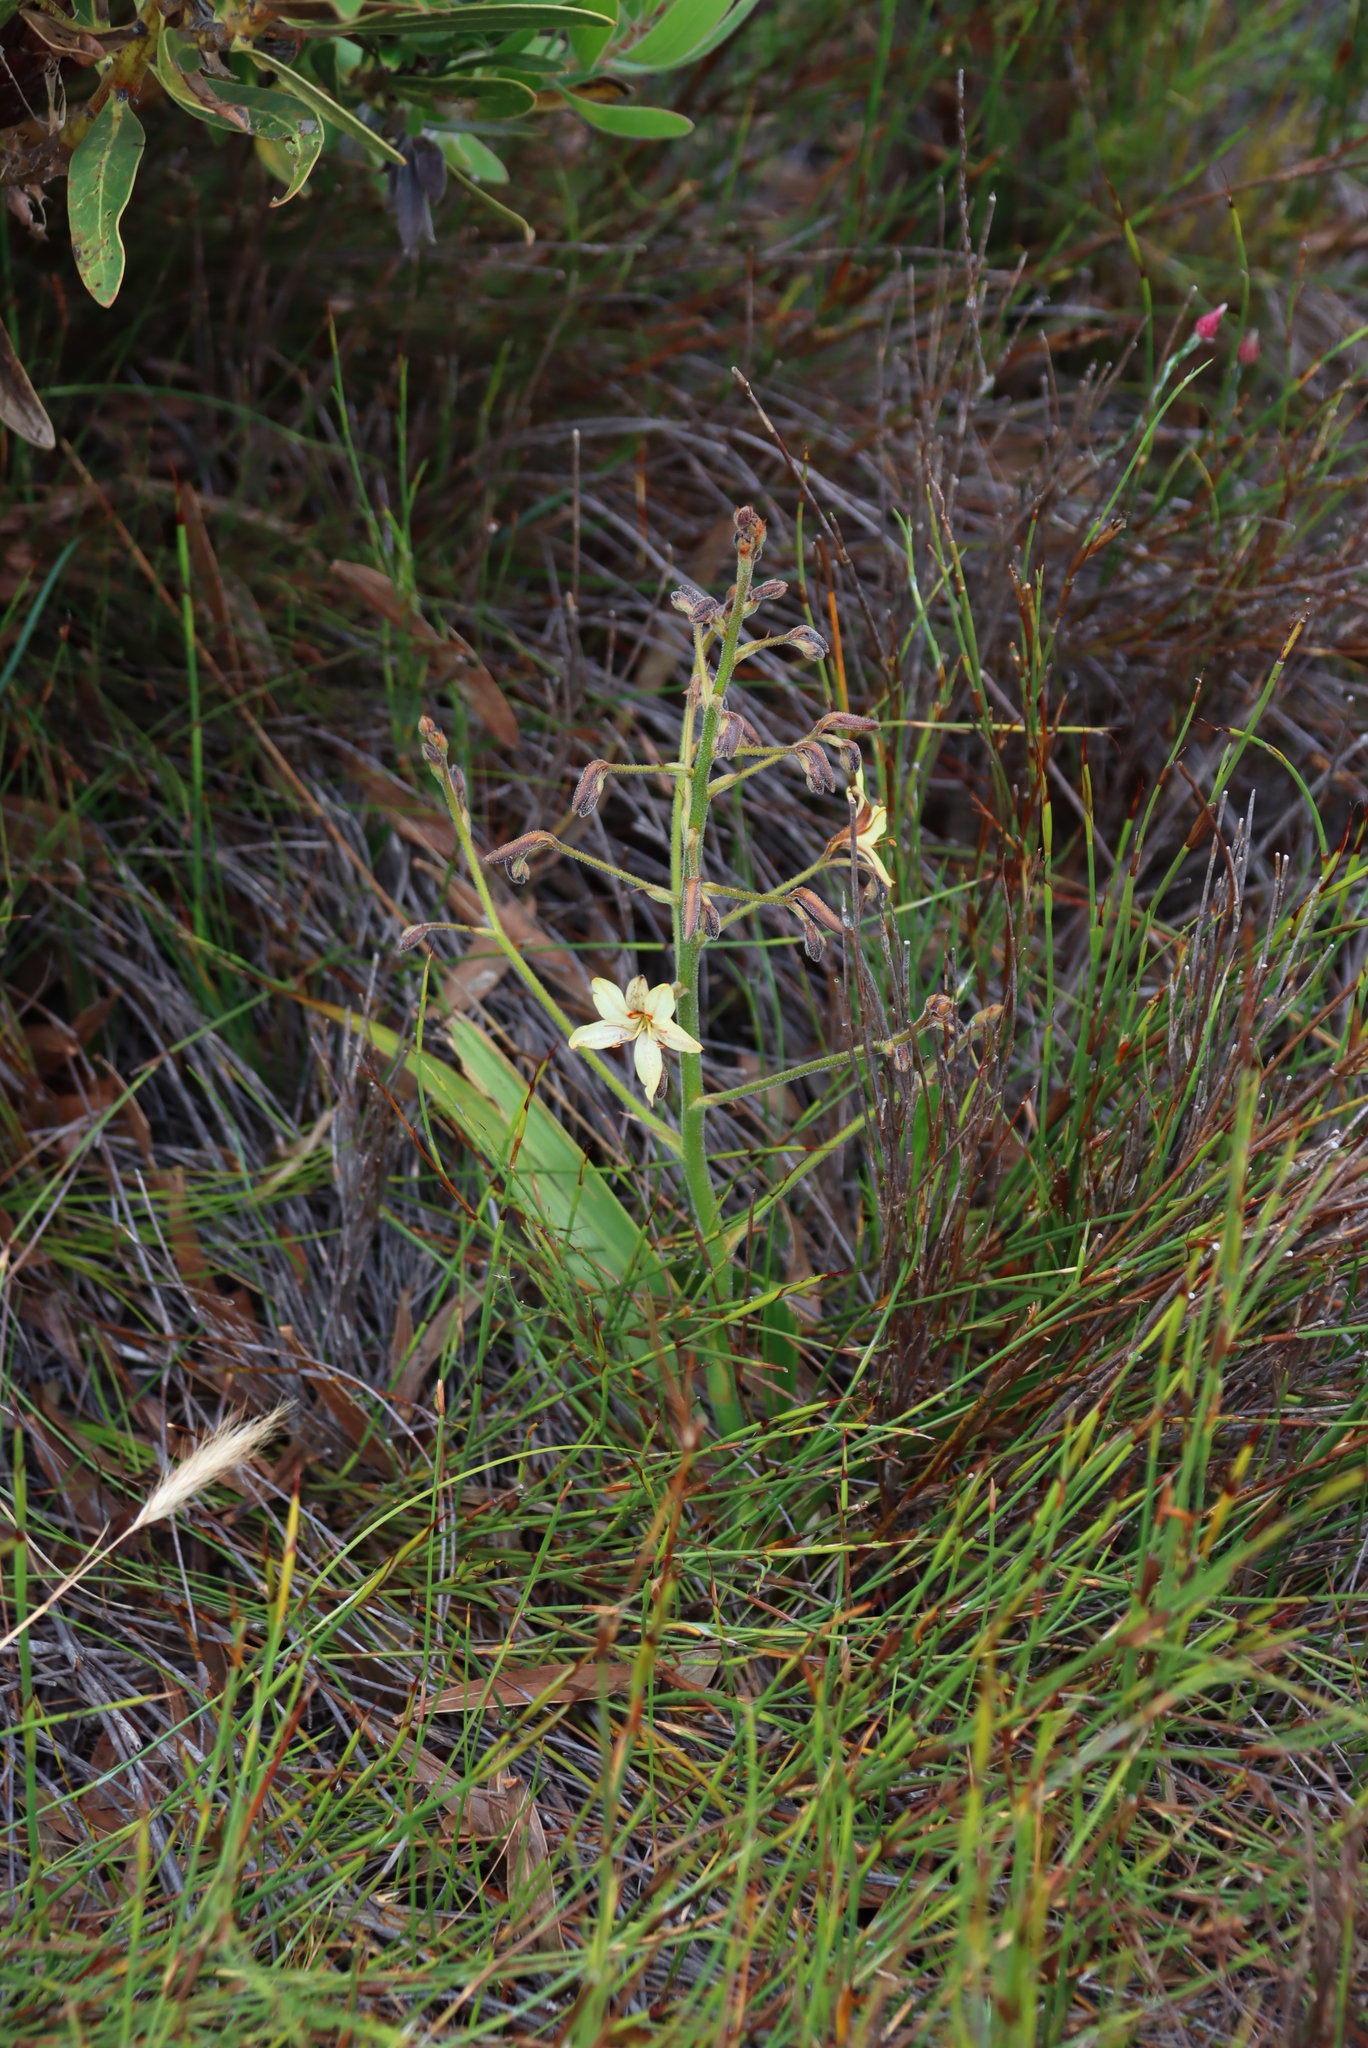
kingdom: Plantae
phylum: Tracheophyta
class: Liliopsida
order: Commelinales
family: Haemodoraceae
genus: Wachendorfia
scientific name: Wachendorfia paniculata
